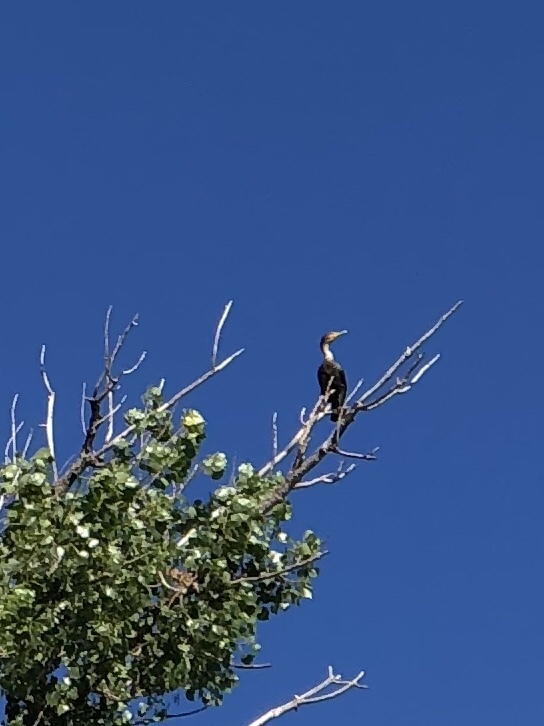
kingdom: Animalia
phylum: Chordata
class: Aves
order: Suliformes
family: Phalacrocoracidae
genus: Phalacrocorax
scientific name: Phalacrocorax auritus
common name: Double-crested cormorant
